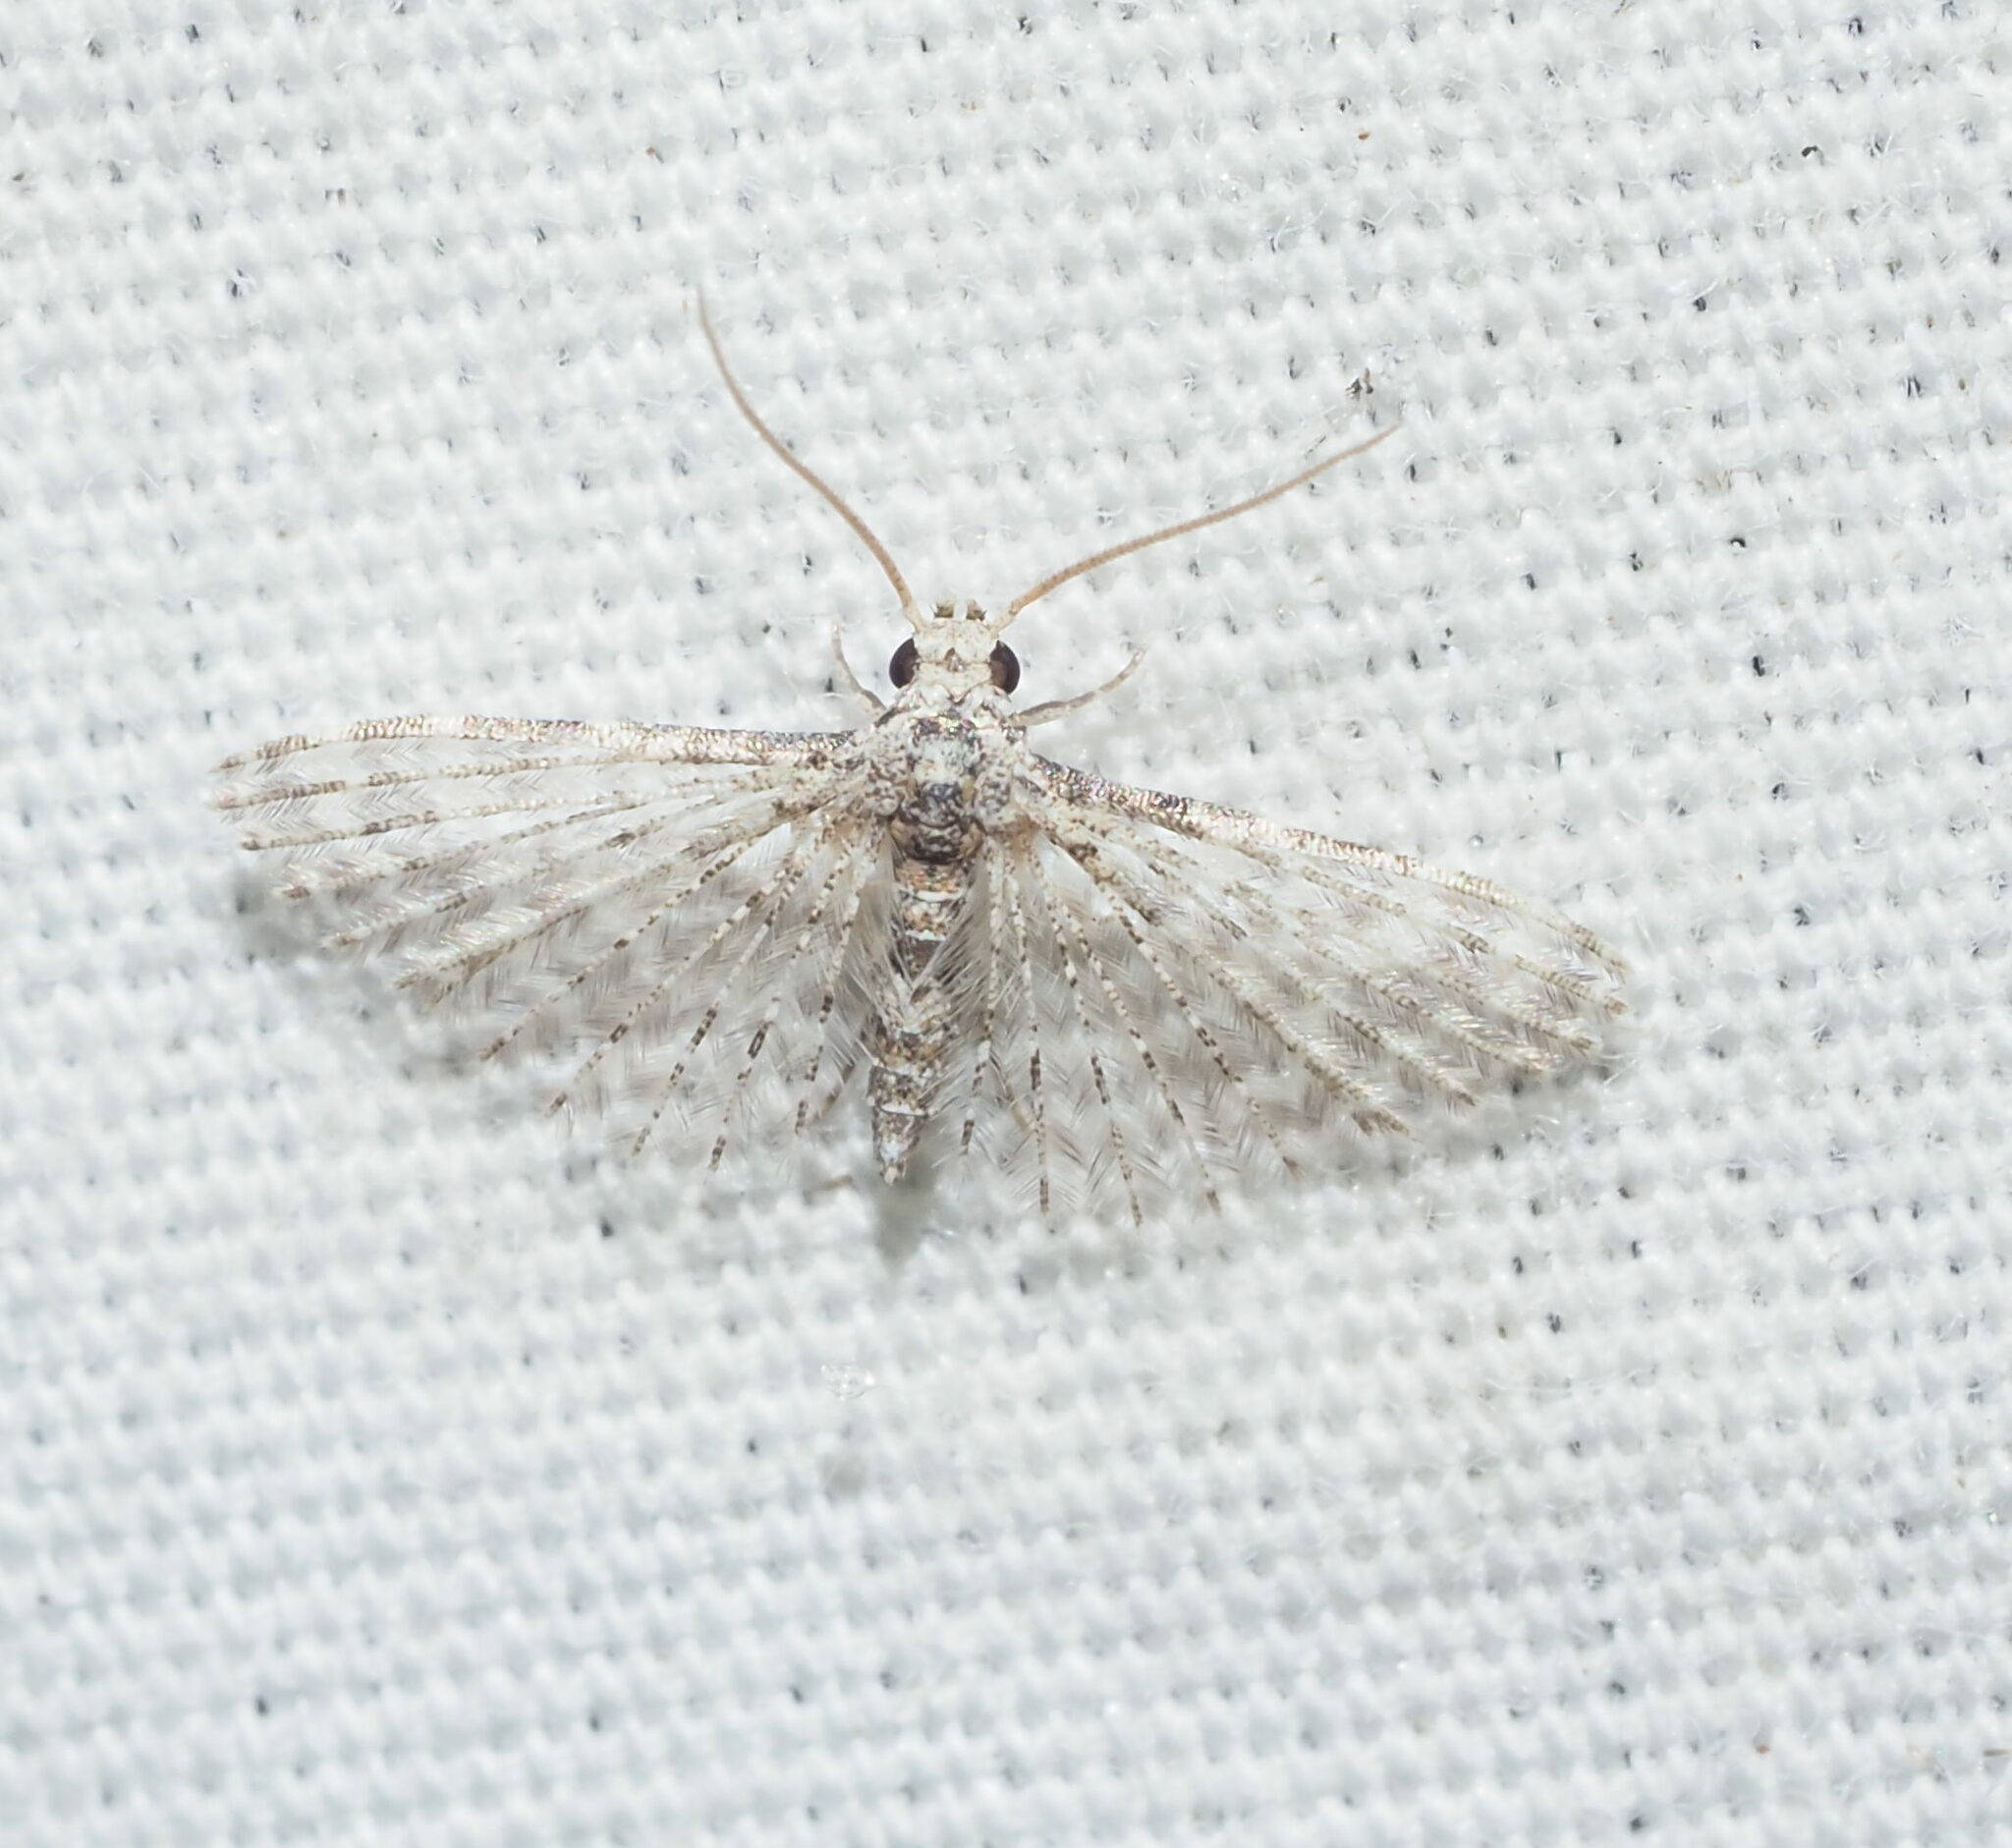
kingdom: Animalia
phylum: Arthropoda
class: Insecta
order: Lepidoptera
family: Alucitidae
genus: Alucita
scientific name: Alucita objurgatella
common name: Moth
